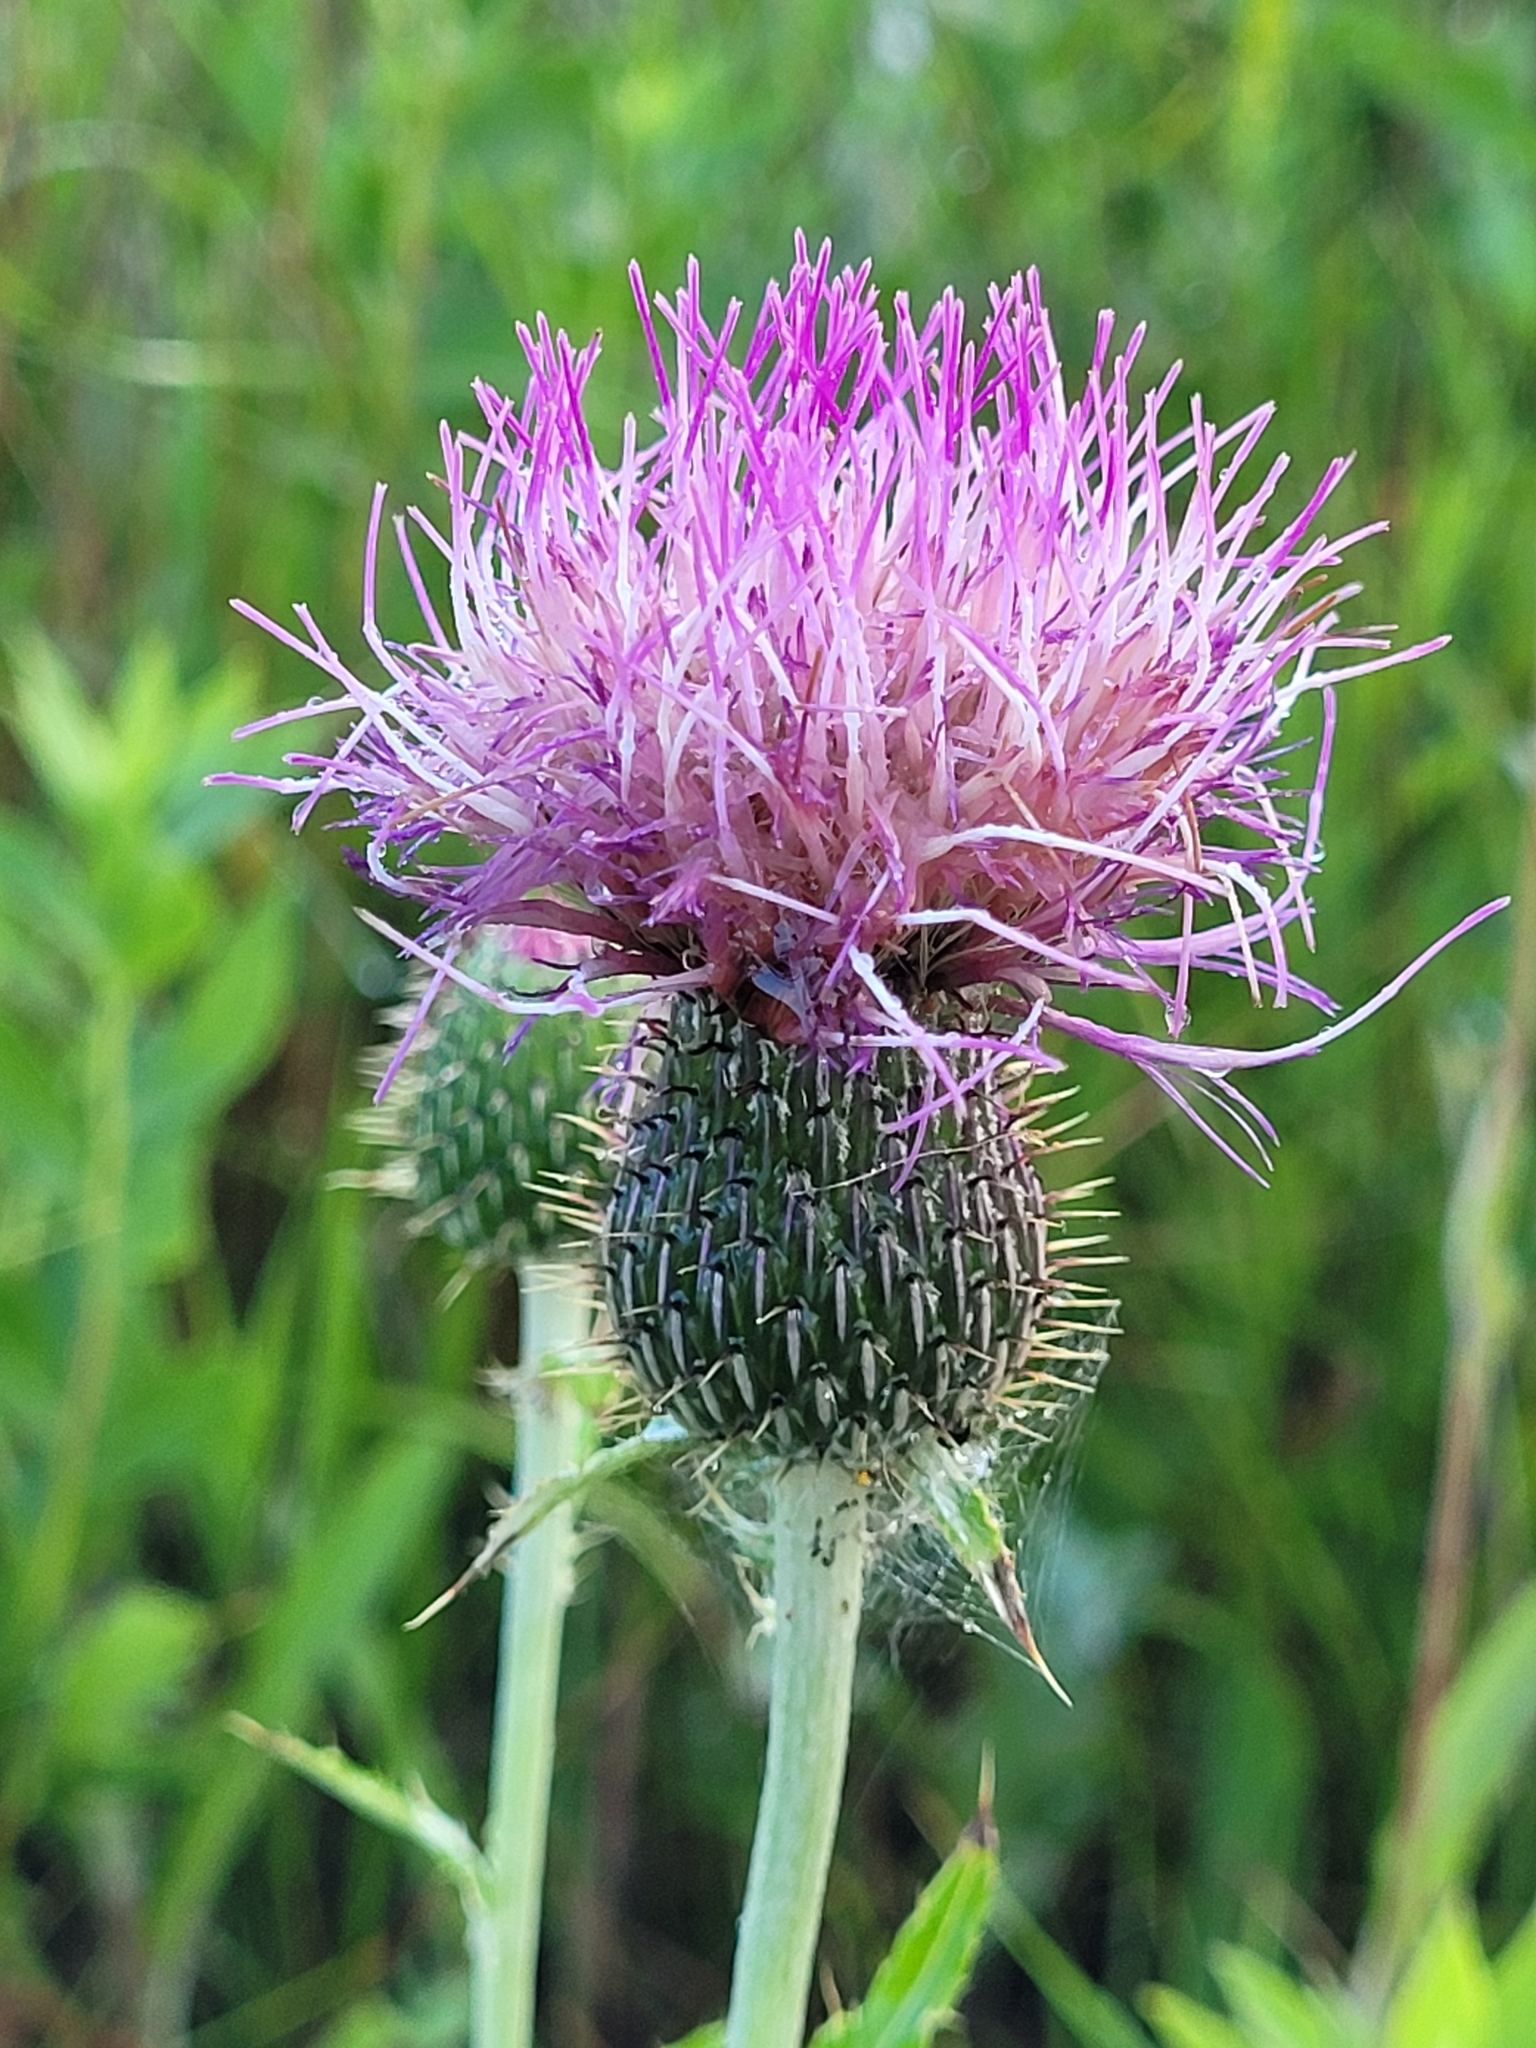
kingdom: Plantae
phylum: Tracheophyta
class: Magnoliopsida
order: Asterales
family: Asteraceae
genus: Cirsium
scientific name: Cirsium flodmanii
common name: Flodman's thistle
